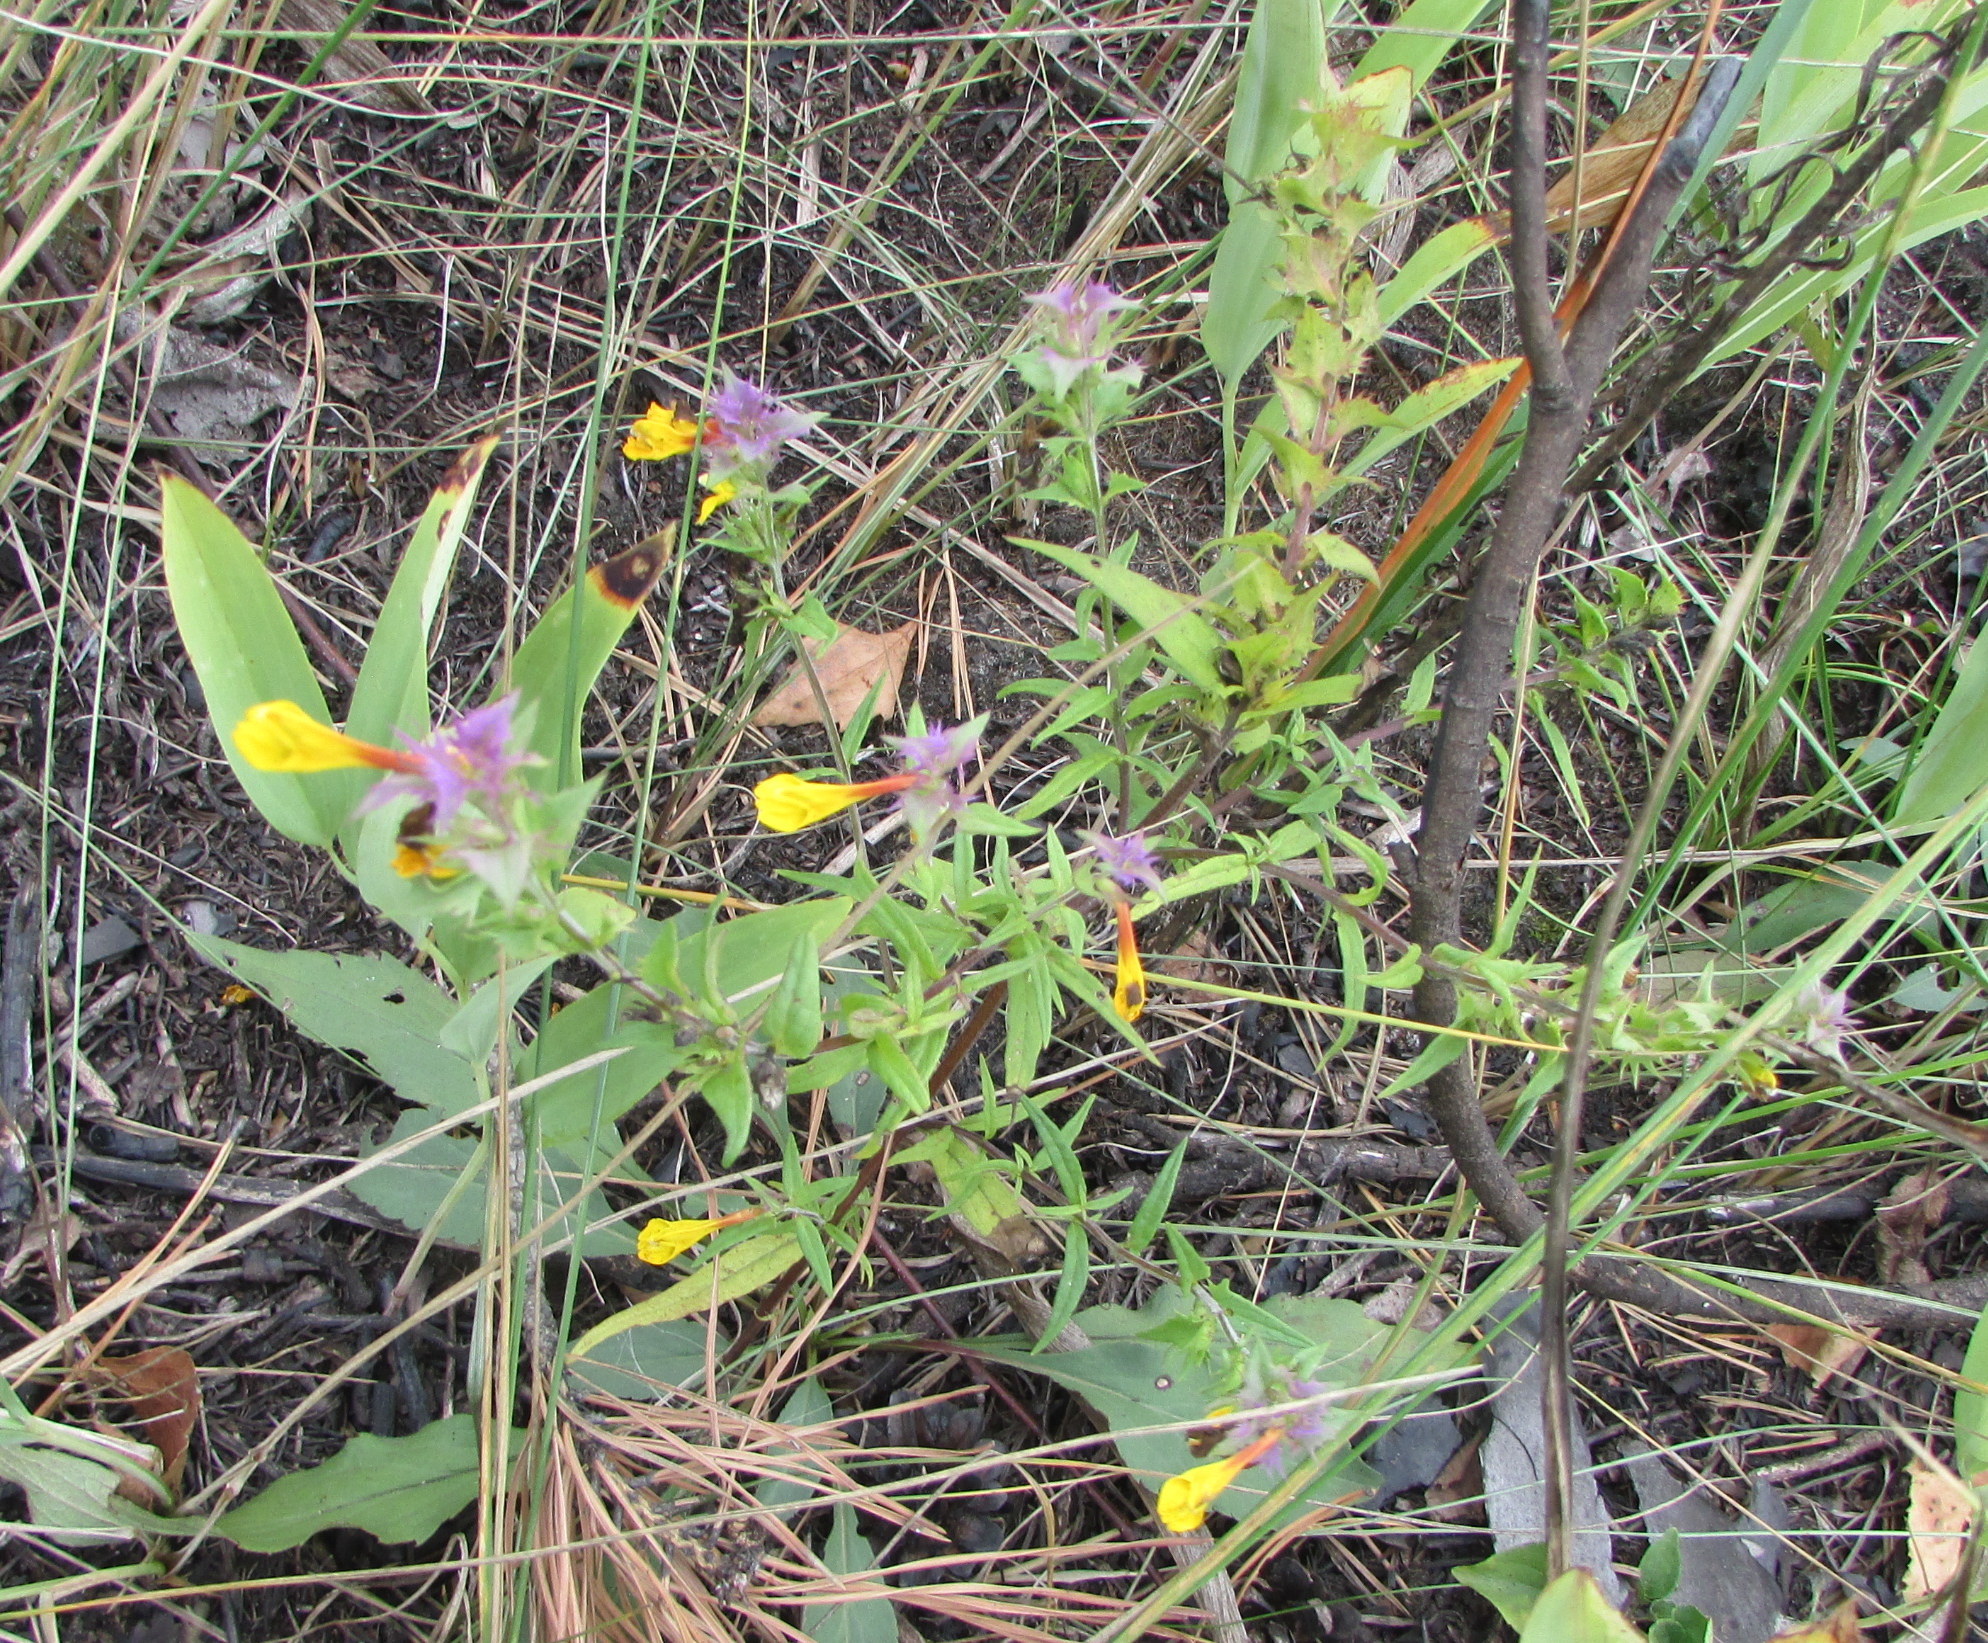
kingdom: Plantae
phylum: Tracheophyta
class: Magnoliopsida
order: Lamiales
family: Orobanchaceae
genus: Melampyrum
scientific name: Melampyrum nemorosum
